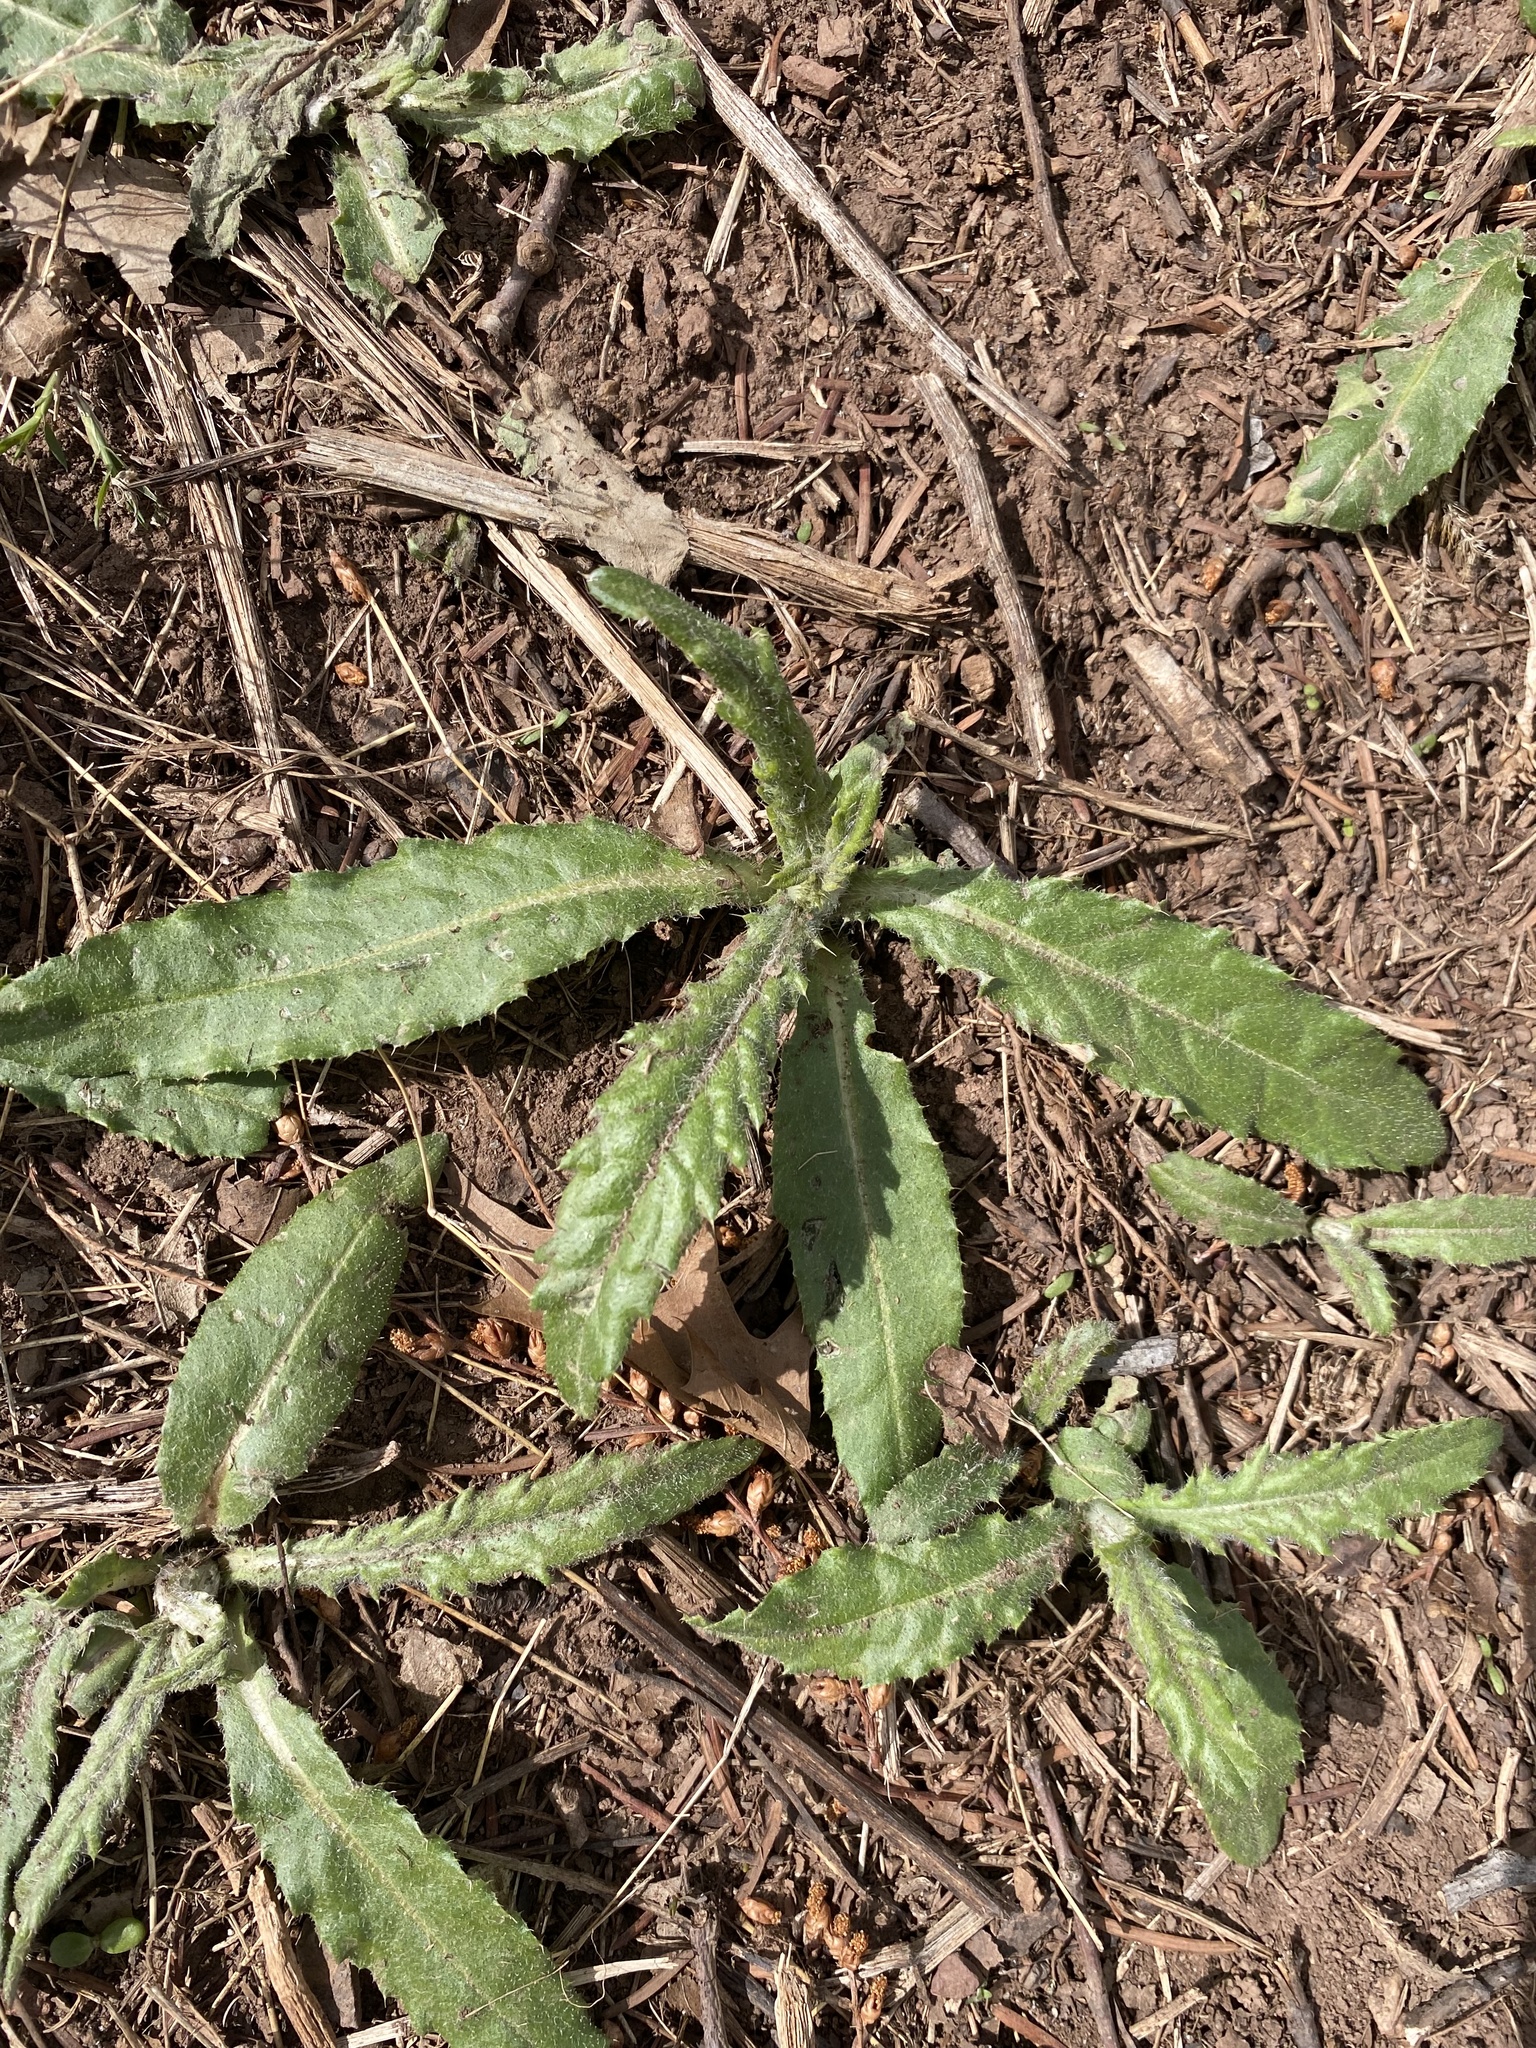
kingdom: Plantae
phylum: Tracheophyta
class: Magnoliopsida
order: Asterales
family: Asteraceae
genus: Cirsium
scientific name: Cirsium arvense
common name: Creeping thistle
